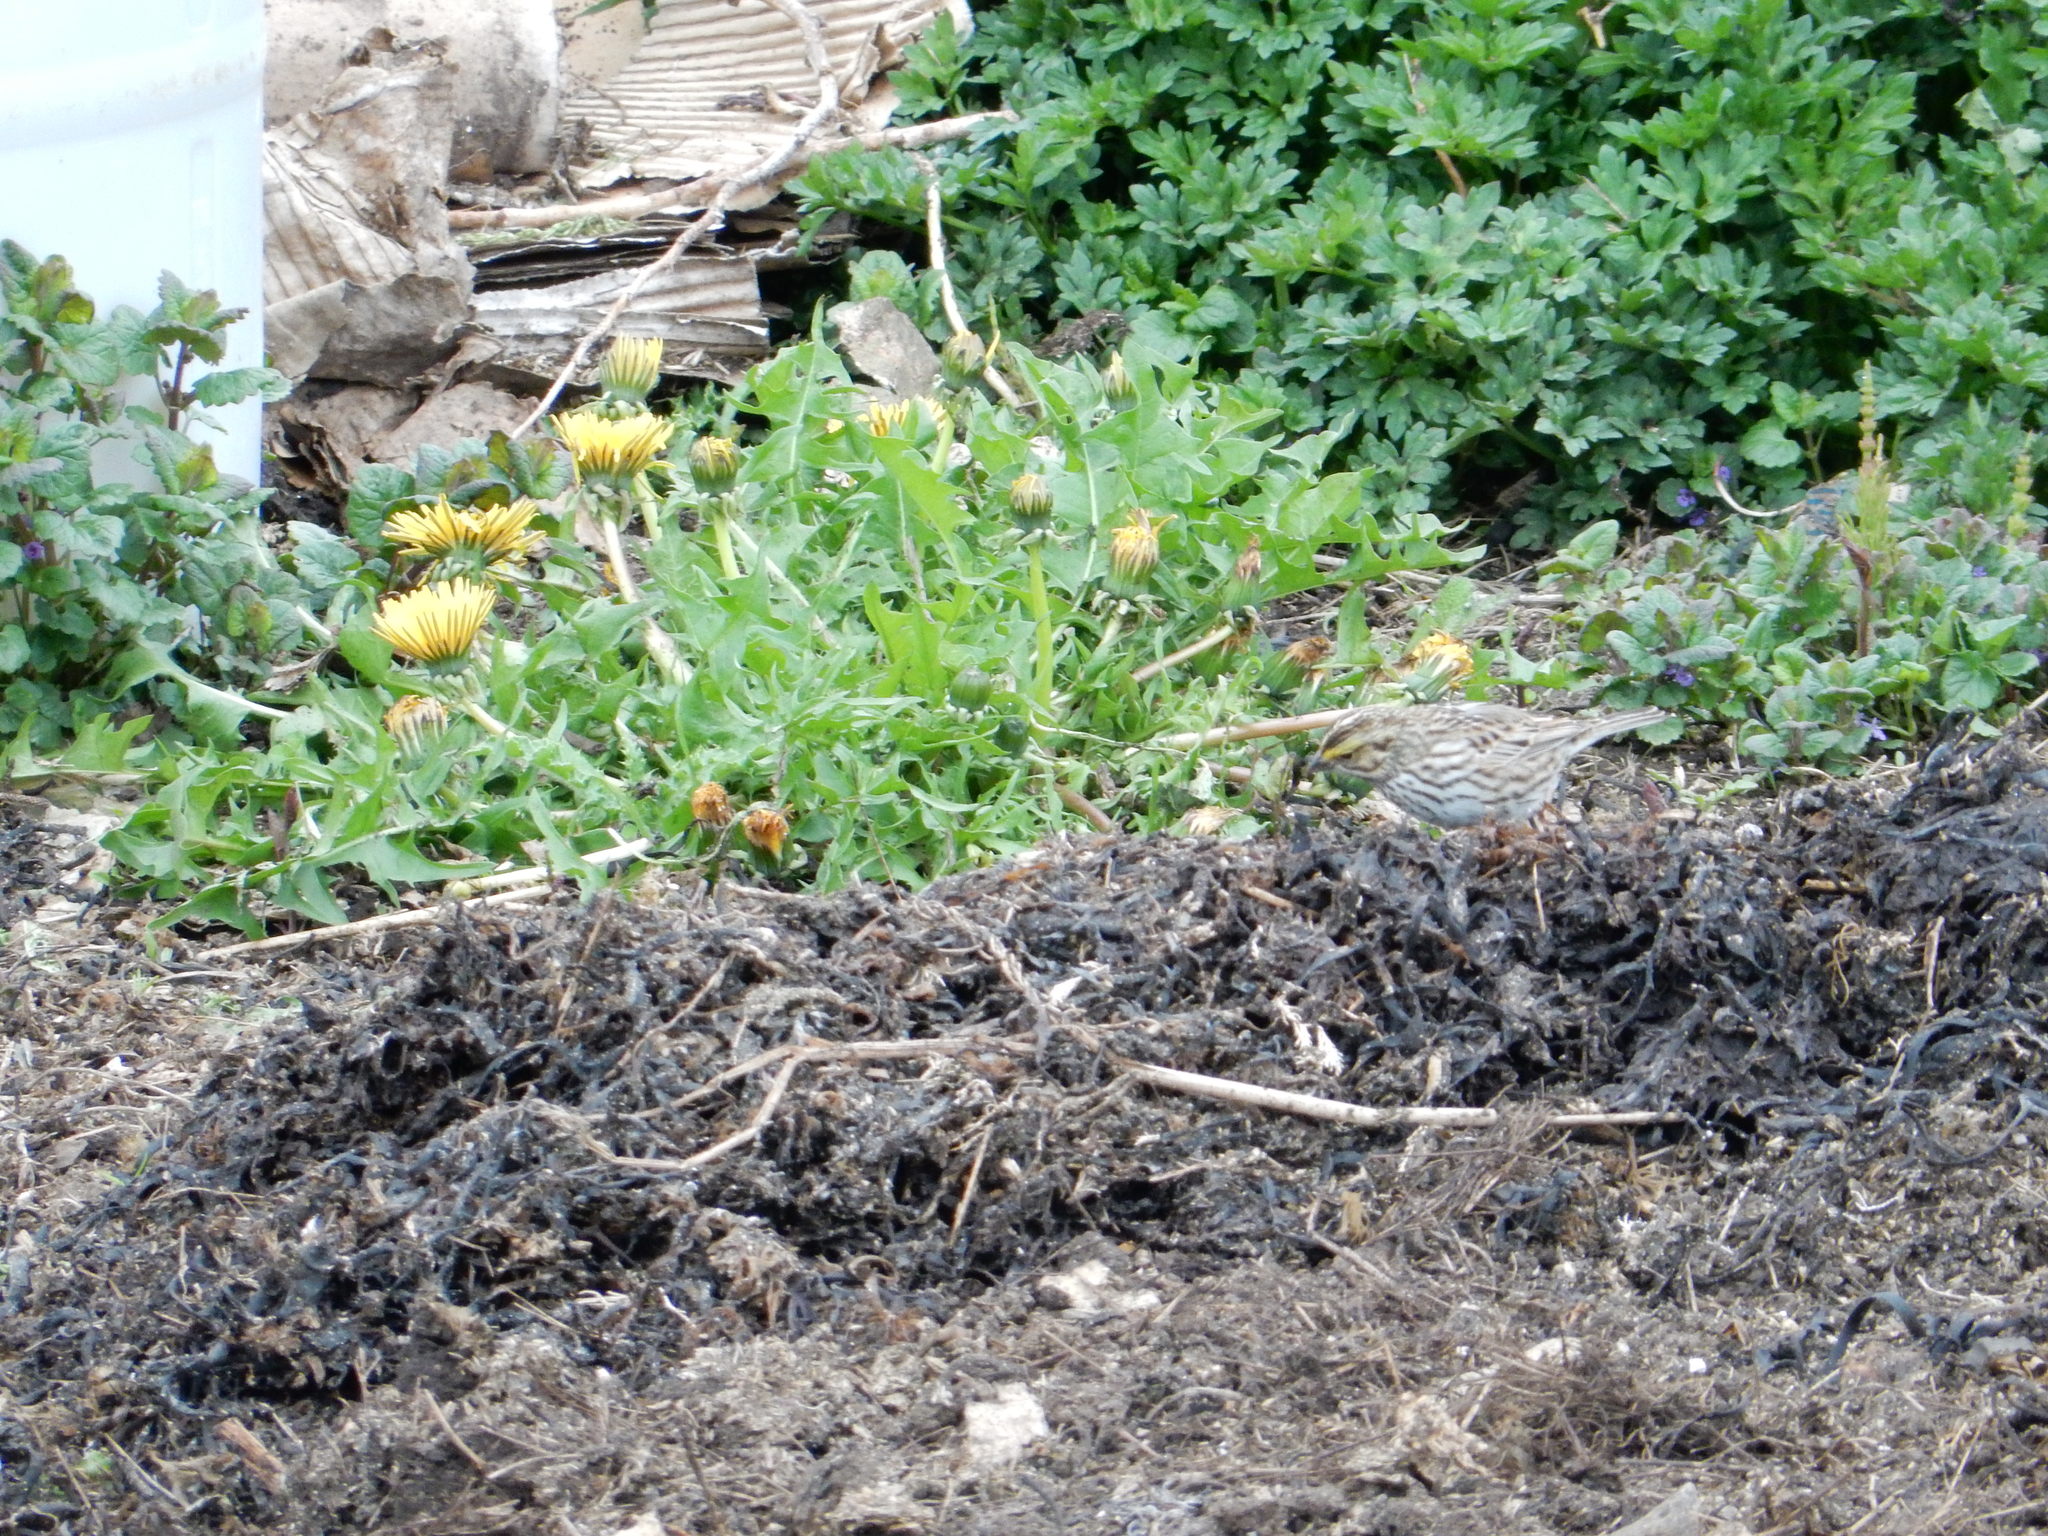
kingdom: Animalia
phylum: Chordata
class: Aves
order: Passeriformes
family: Passerellidae
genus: Passerculus
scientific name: Passerculus sandwichensis
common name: Savannah sparrow
